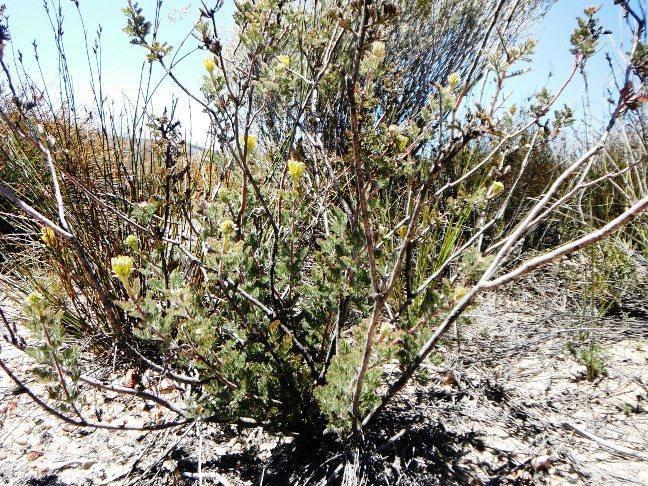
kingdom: Plantae
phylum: Tracheophyta
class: Magnoliopsida
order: Proteales
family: Proteaceae
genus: Serruria
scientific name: Serruria flava
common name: Spiderhead
